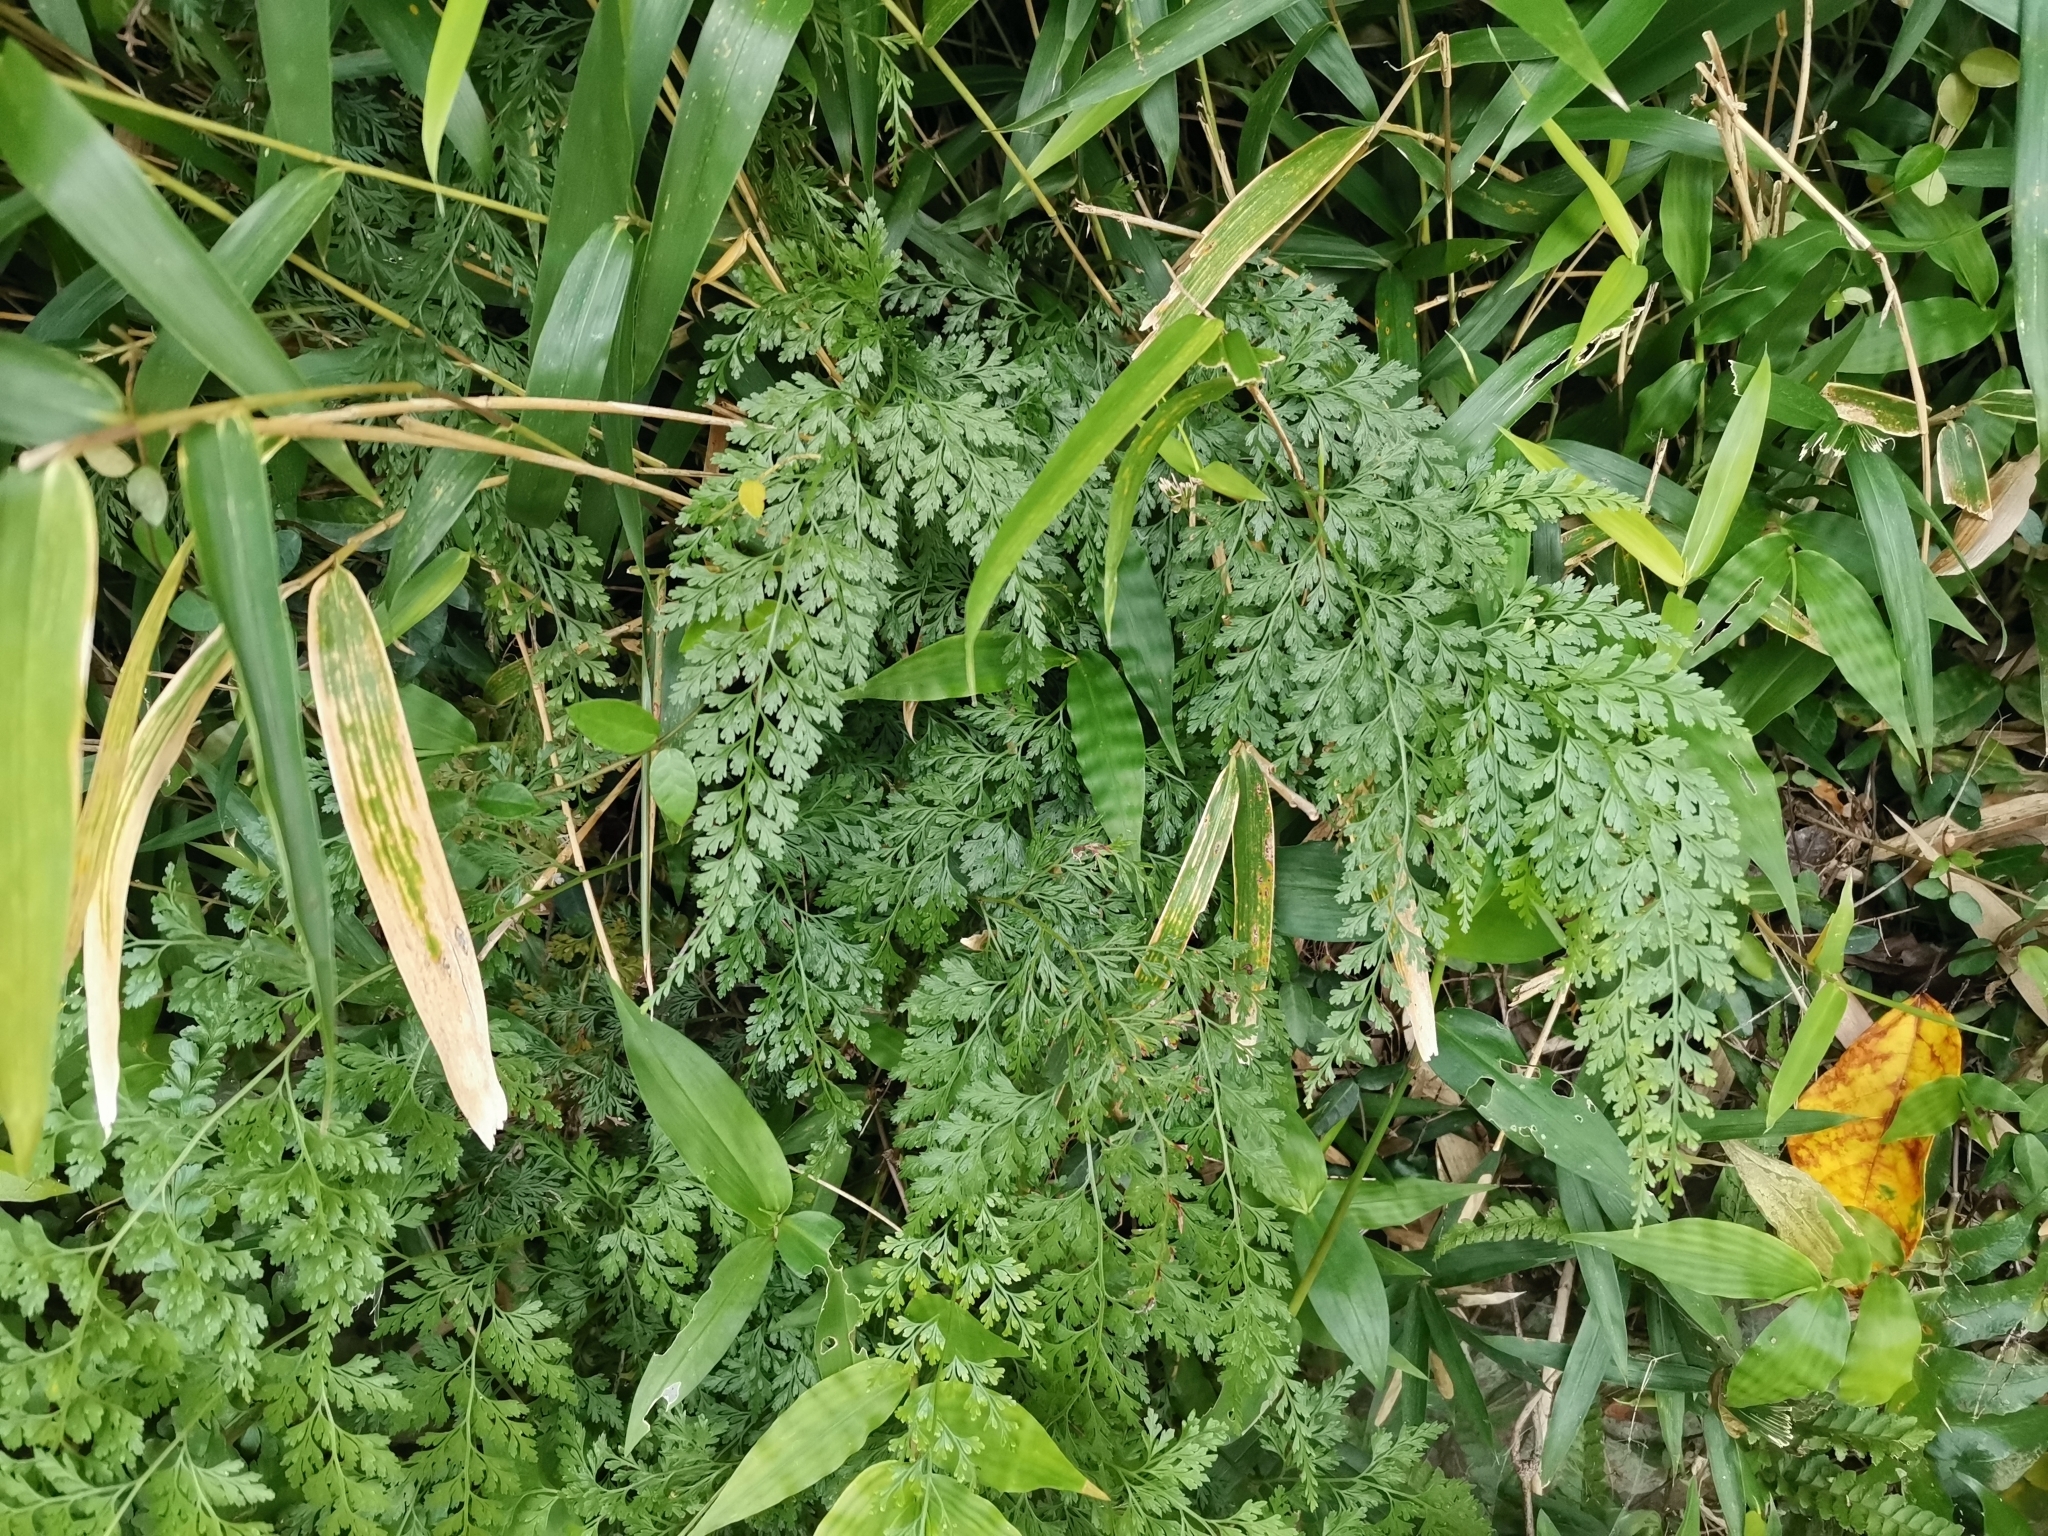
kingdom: Plantae
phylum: Tracheophyta
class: Polypodiopsida
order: Polypodiales
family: Pteridaceae
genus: Onychium
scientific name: Onychium japonicum
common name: Carrot fern
